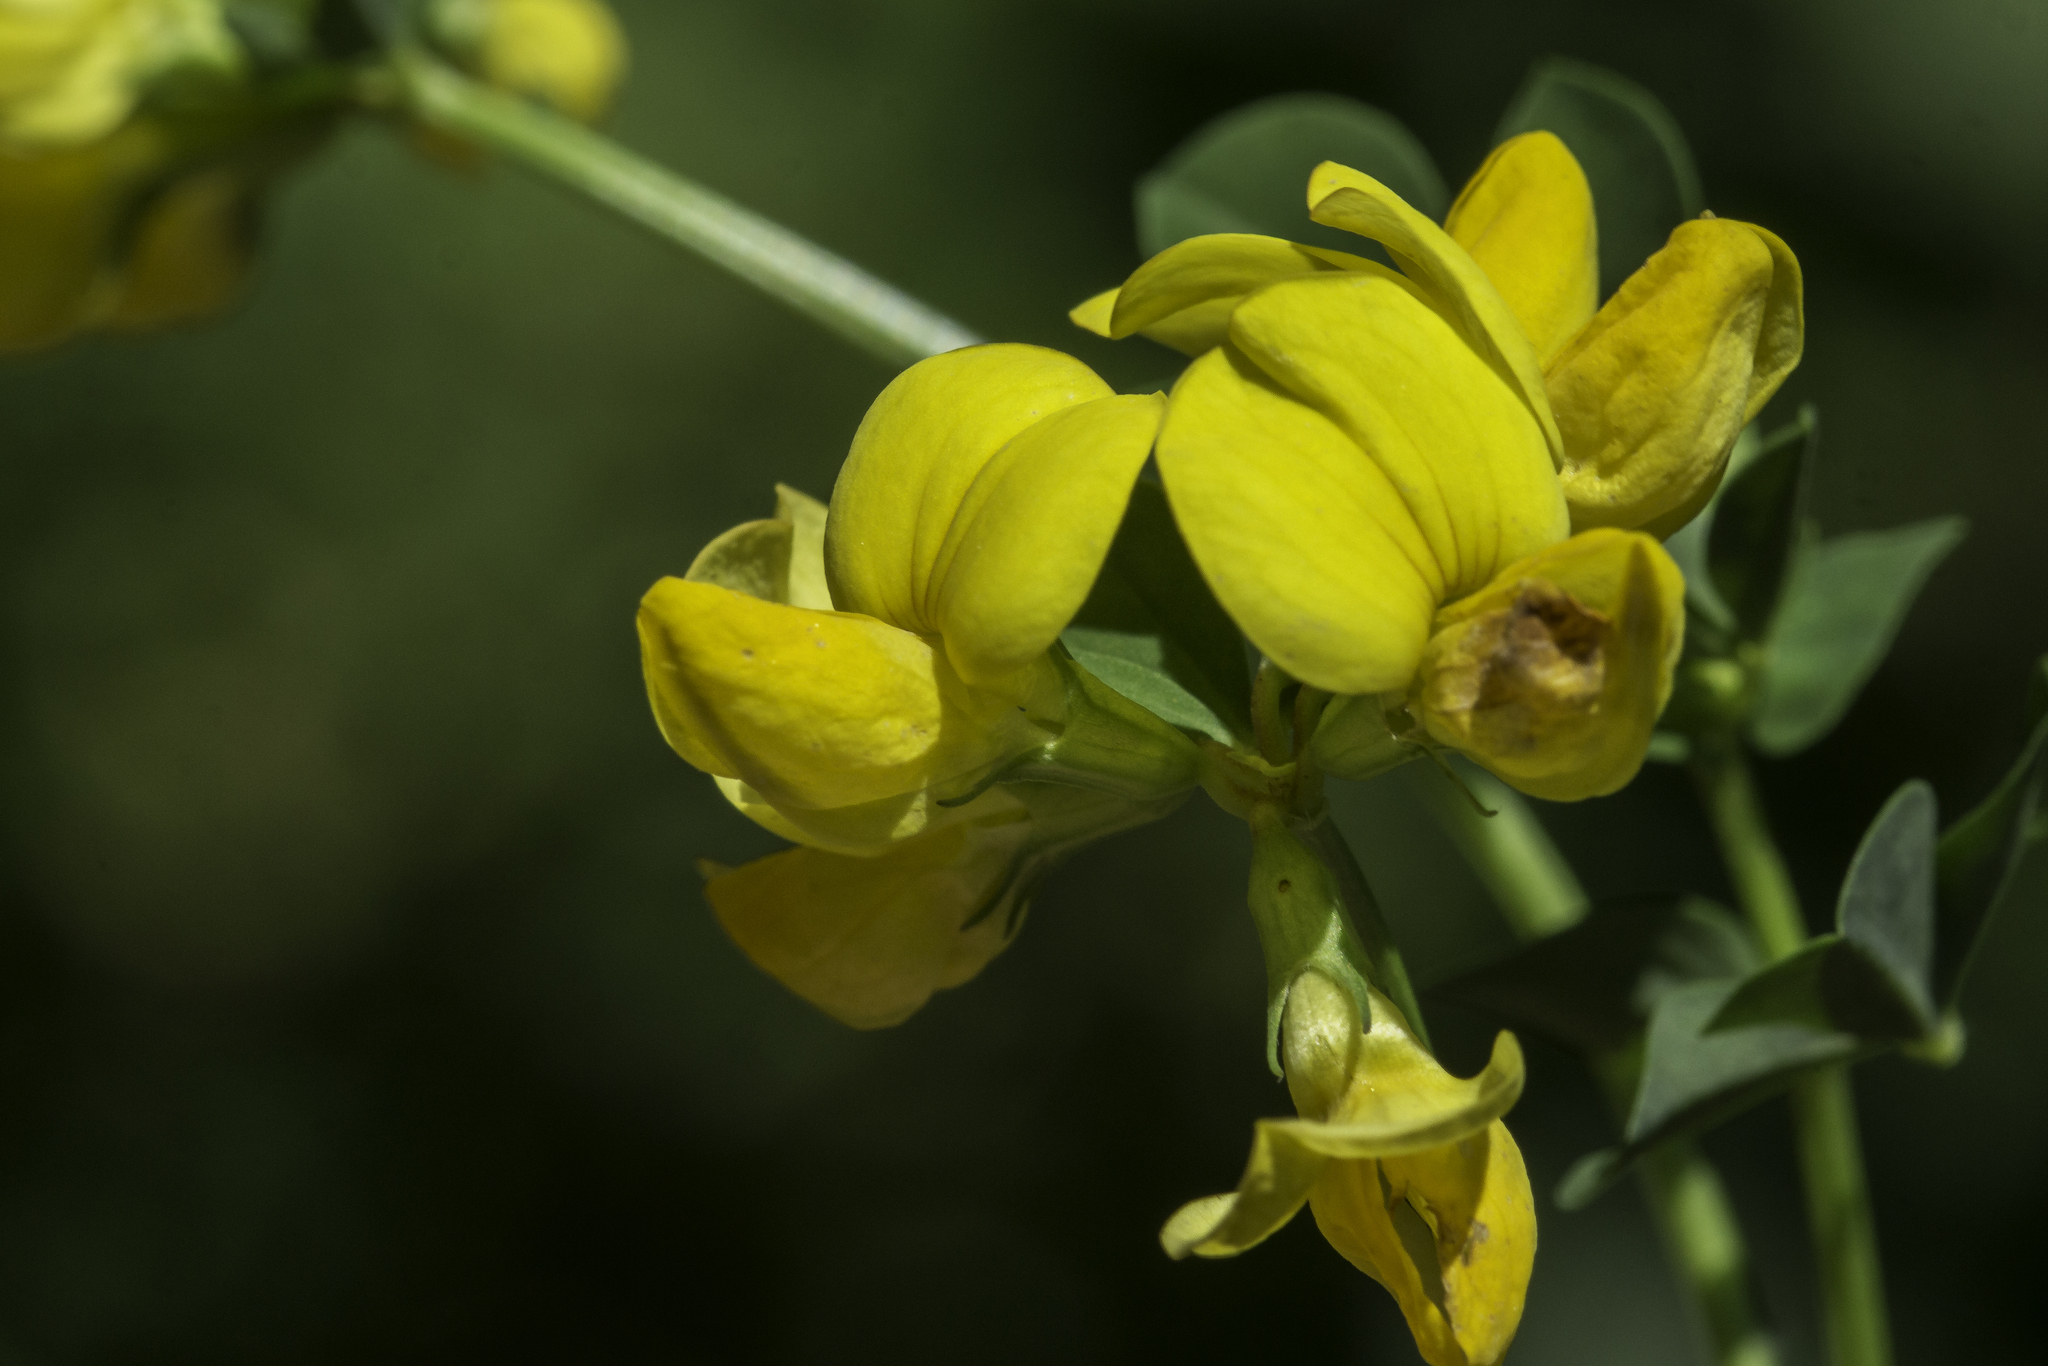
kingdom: Plantae
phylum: Tracheophyta
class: Magnoliopsida
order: Fabales
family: Fabaceae
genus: Lotus
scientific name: Lotus corniculatus
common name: Common bird's-foot-trefoil
